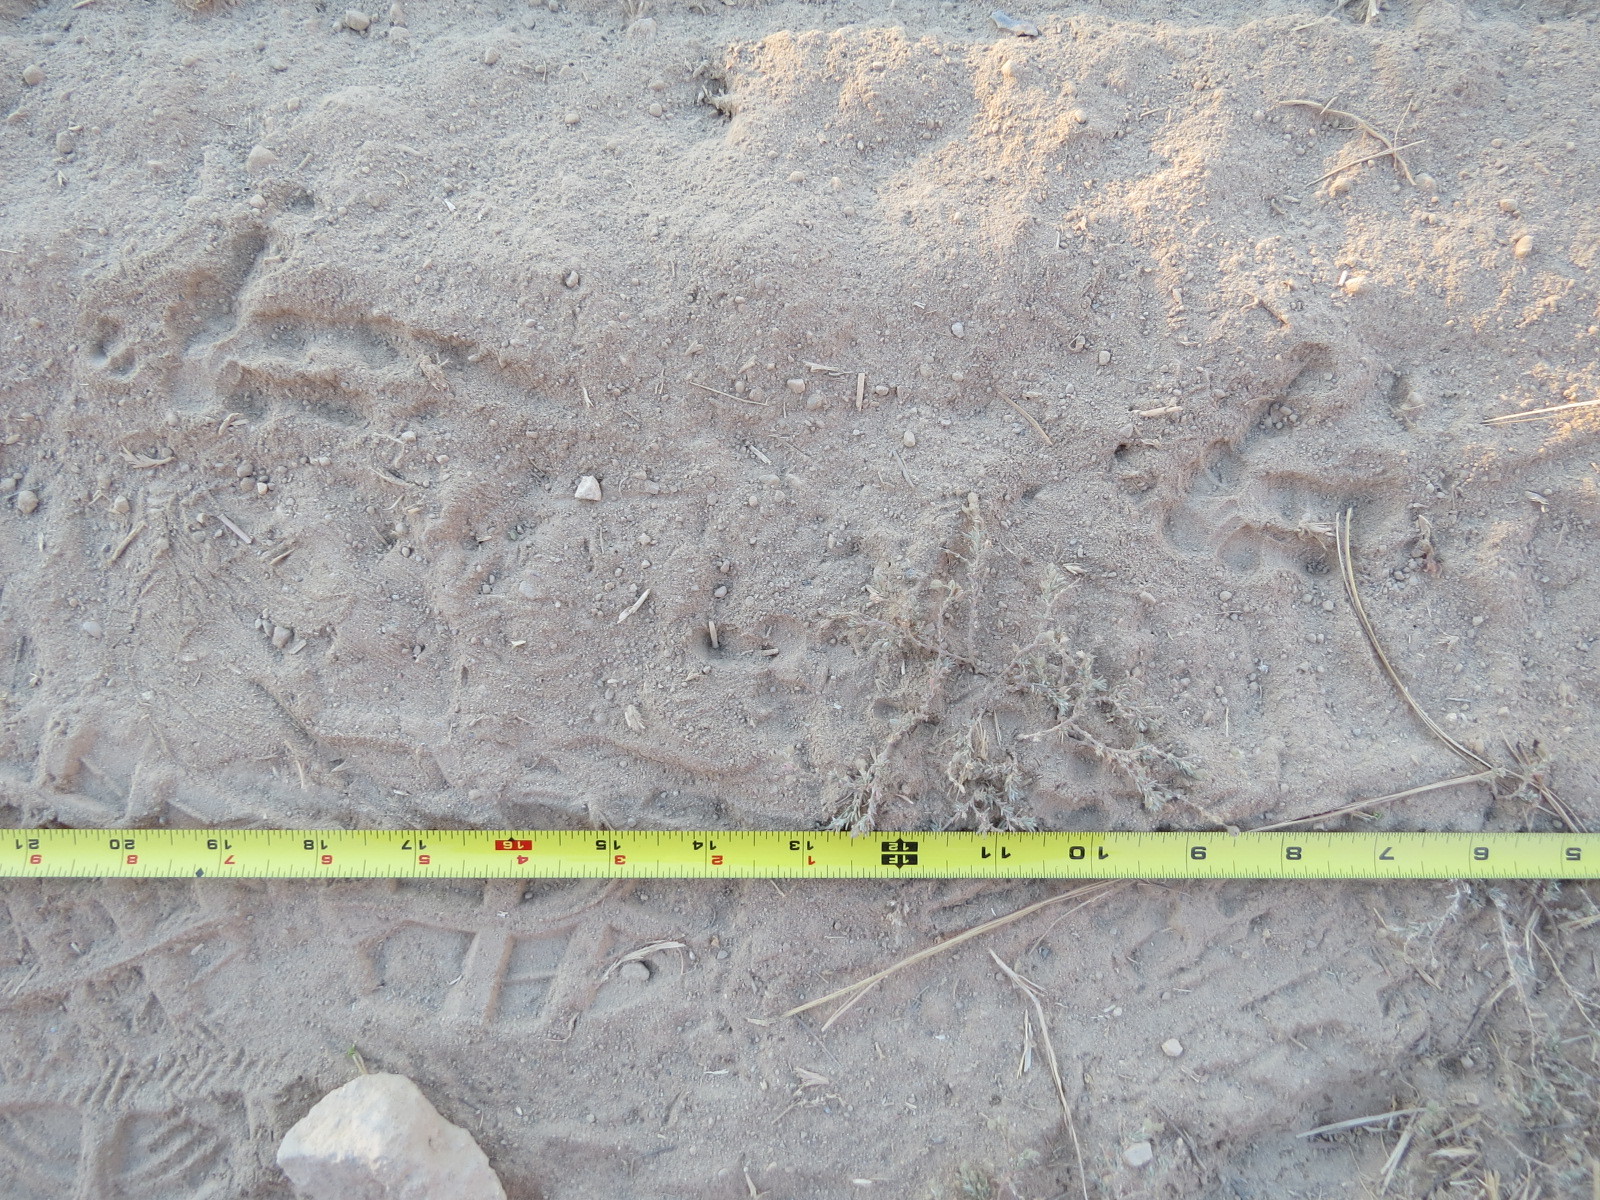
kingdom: Animalia
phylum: Chordata
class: Aves
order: Strigiformes
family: Strigidae
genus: Bubo
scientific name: Bubo virginianus
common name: Great horned owl
